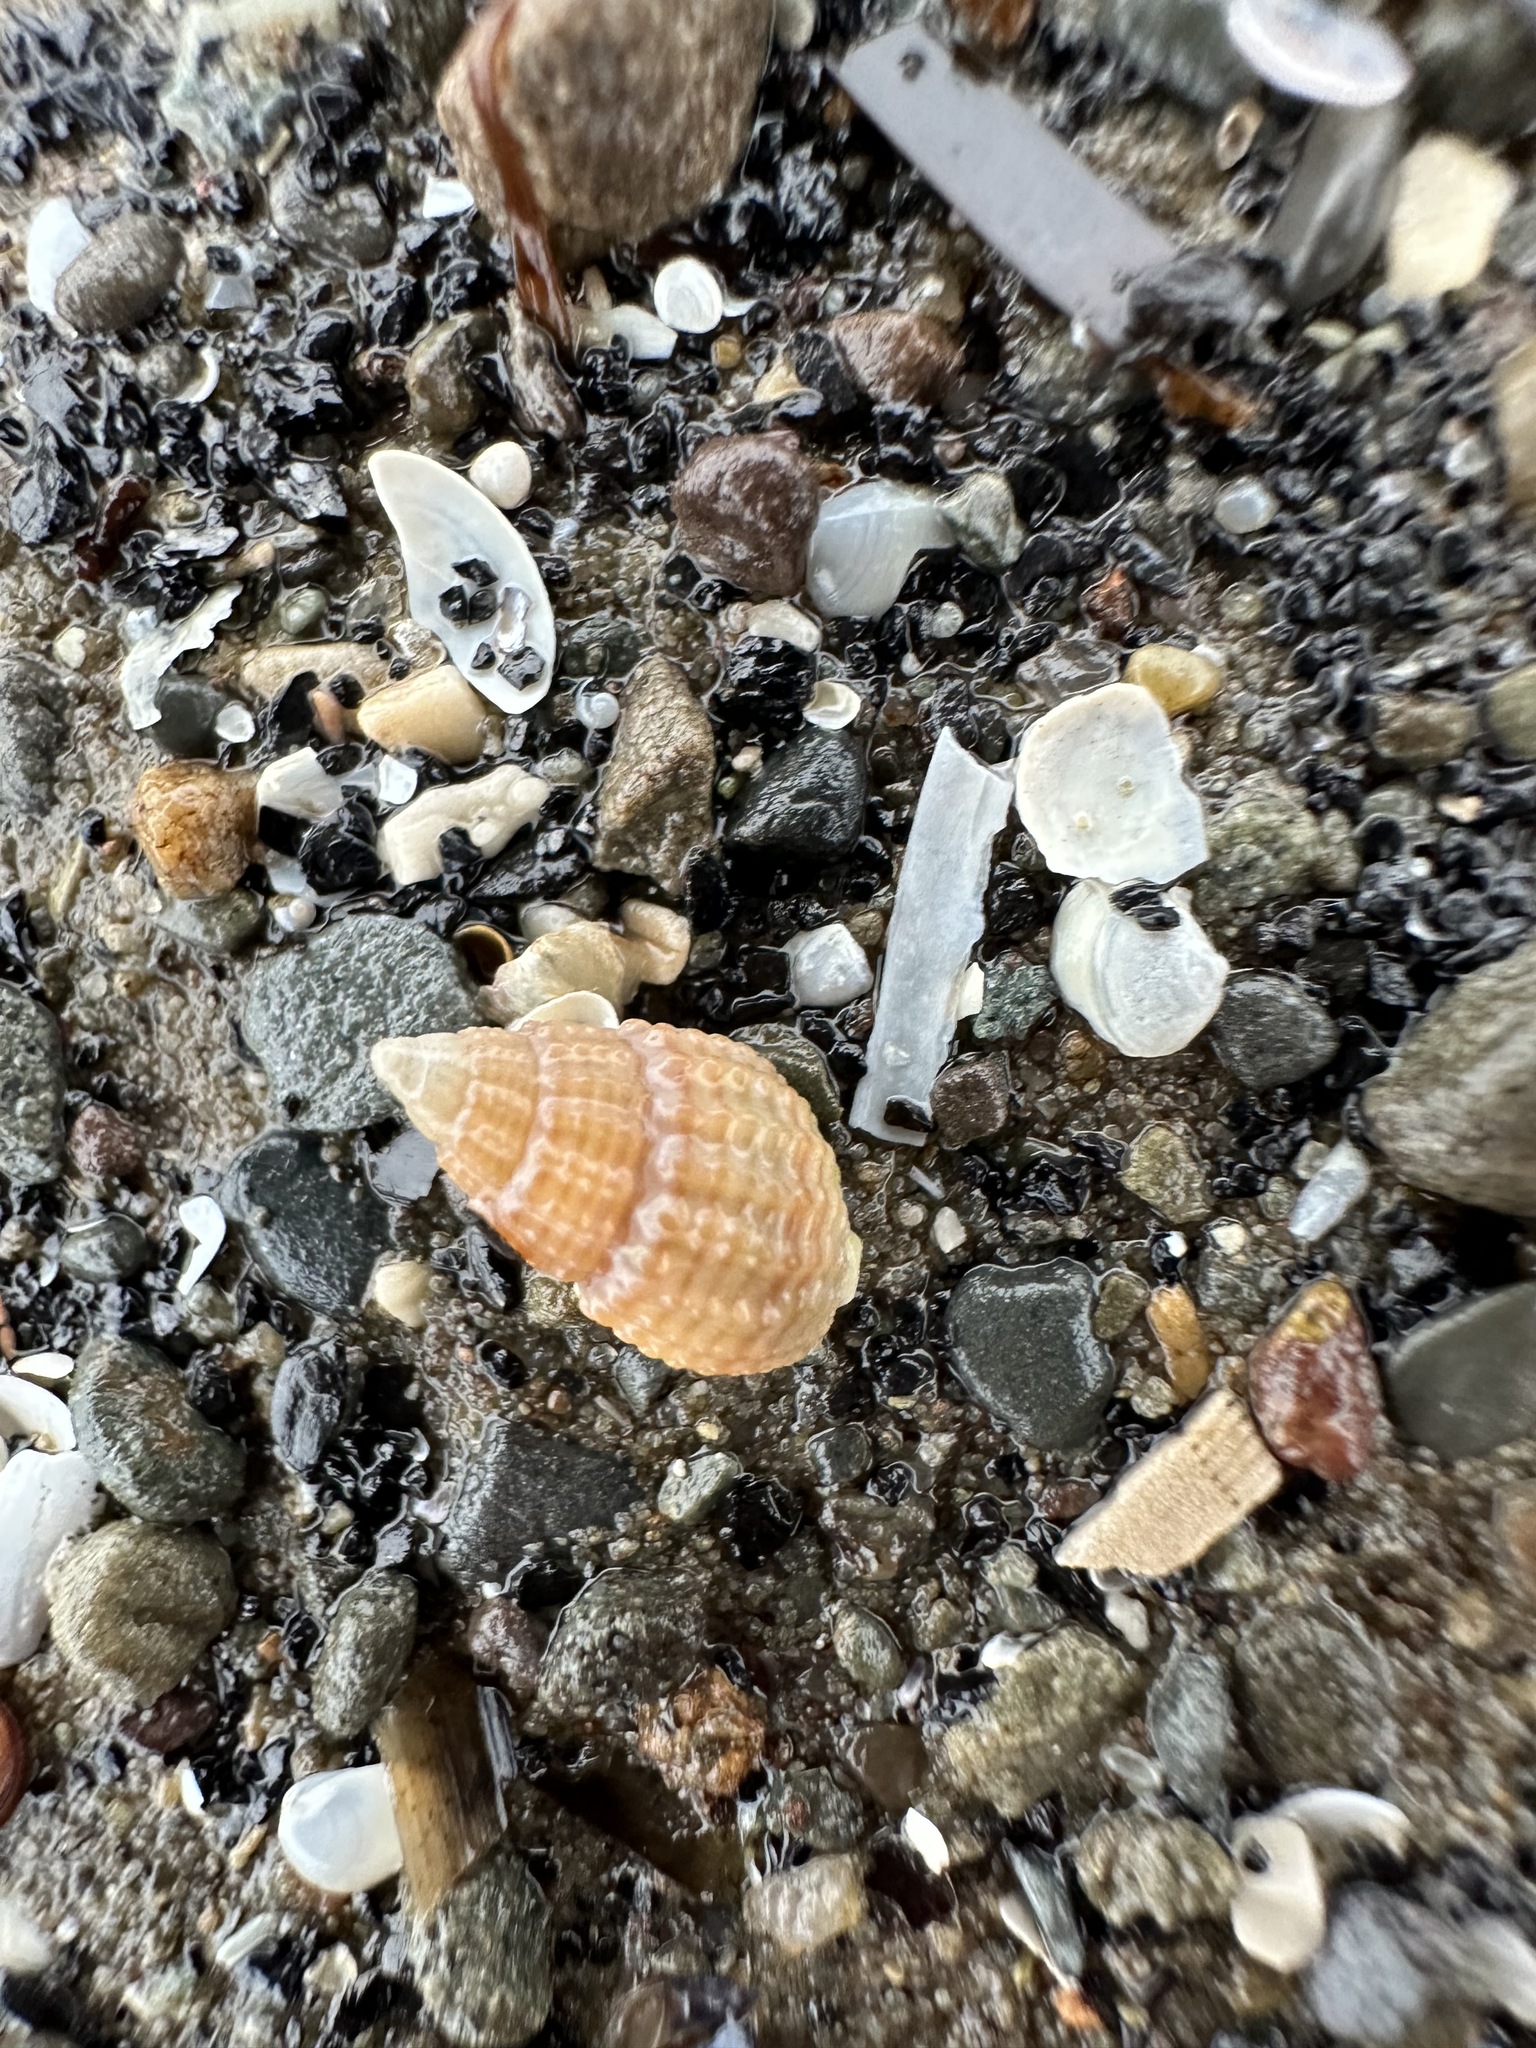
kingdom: Animalia
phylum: Mollusca
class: Gastropoda
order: Neogastropoda
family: Nassariidae
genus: Ilyanassa
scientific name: Ilyanassa trivittata
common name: Three-line mudsnail
